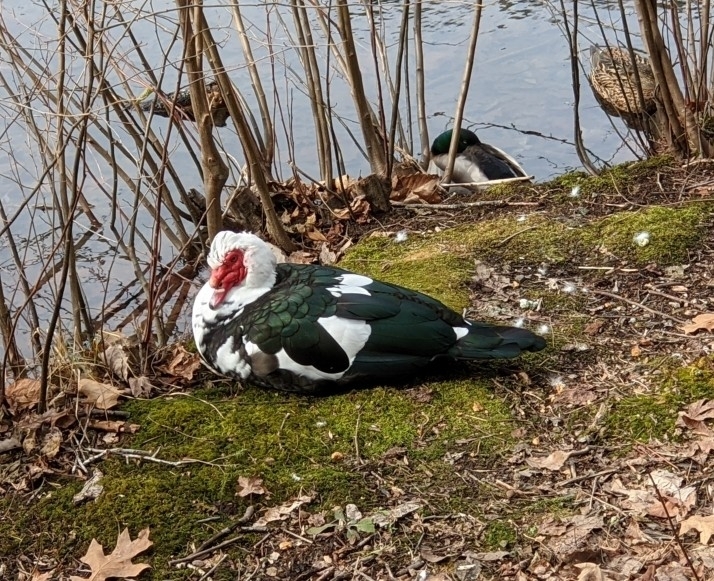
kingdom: Animalia
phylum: Chordata
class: Aves
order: Anseriformes
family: Anatidae
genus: Cairina
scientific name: Cairina moschata
